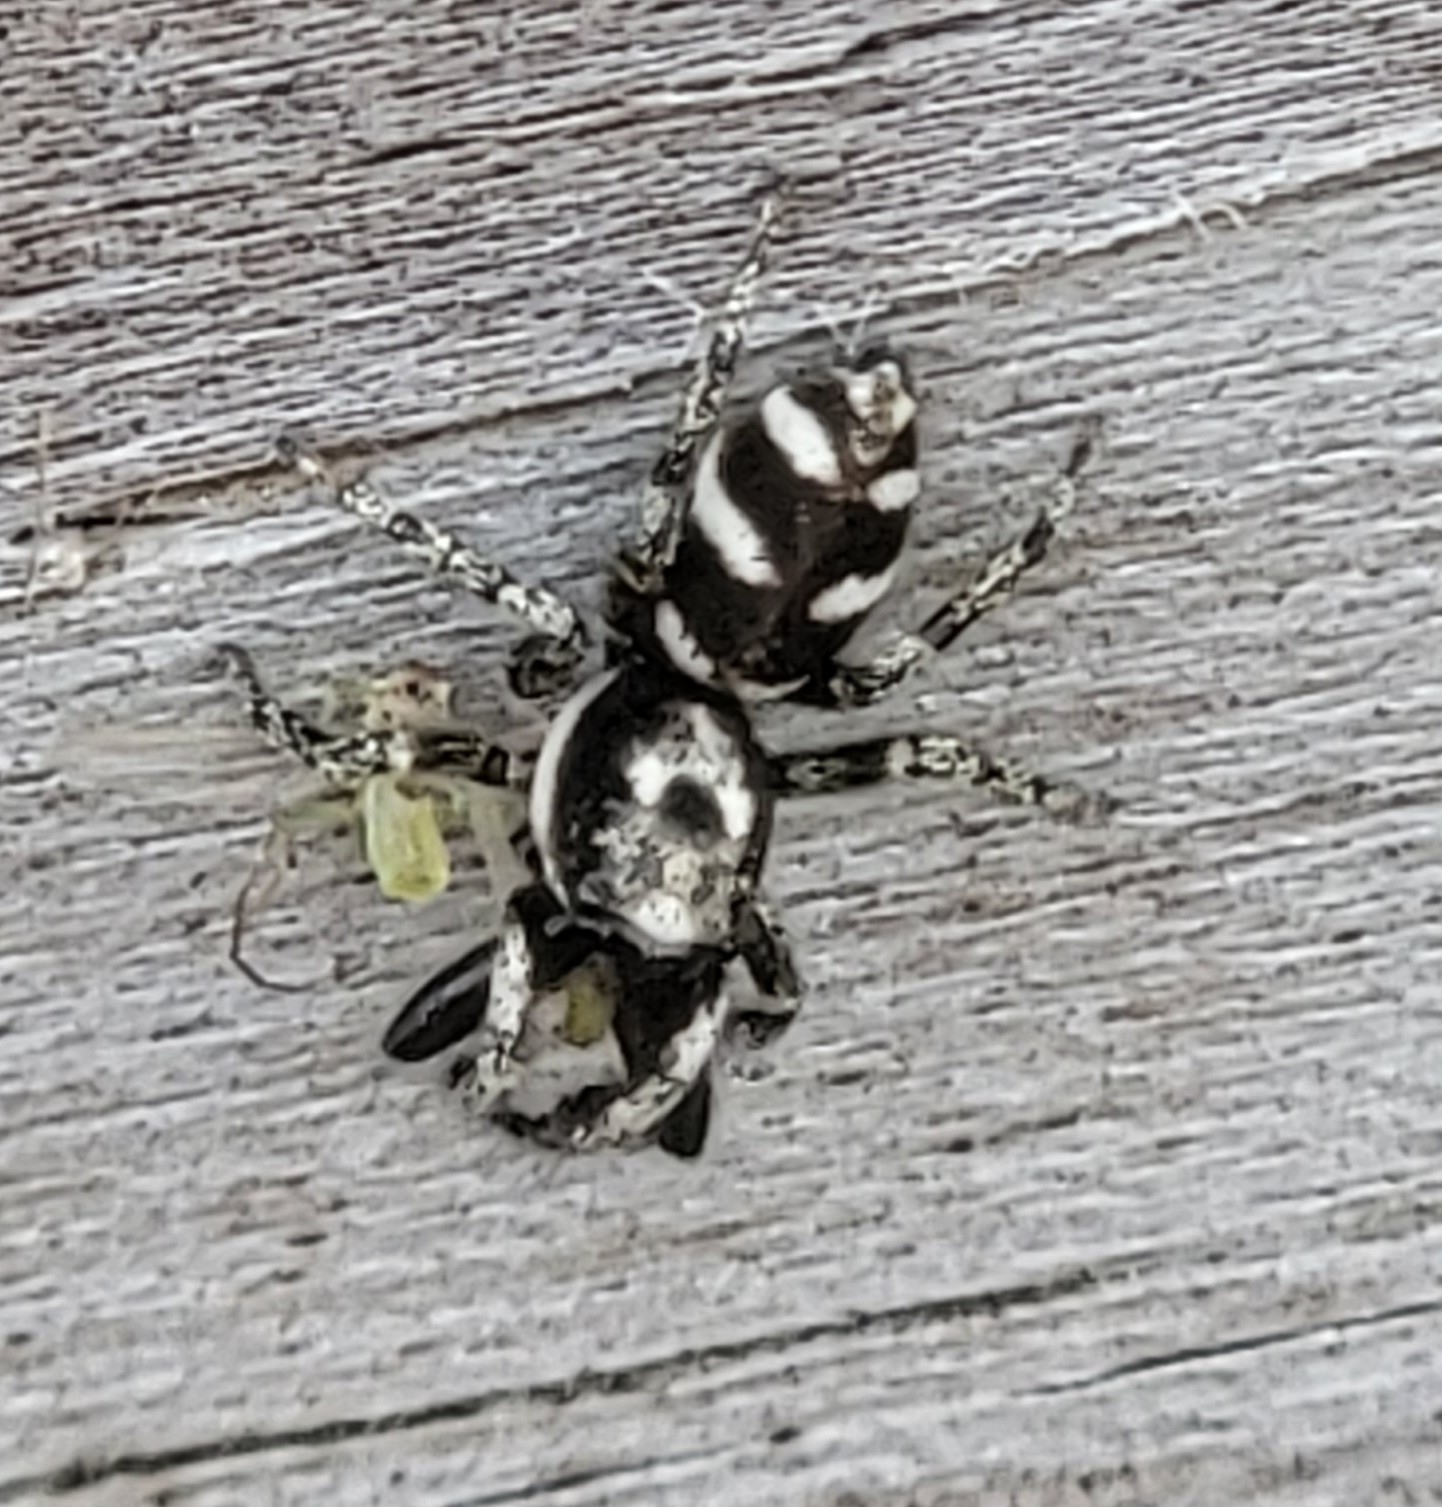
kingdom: Animalia
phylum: Arthropoda
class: Arachnida
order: Araneae
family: Salticidae
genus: Salticus
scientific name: Salticus scenicus
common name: Zebra jumper
